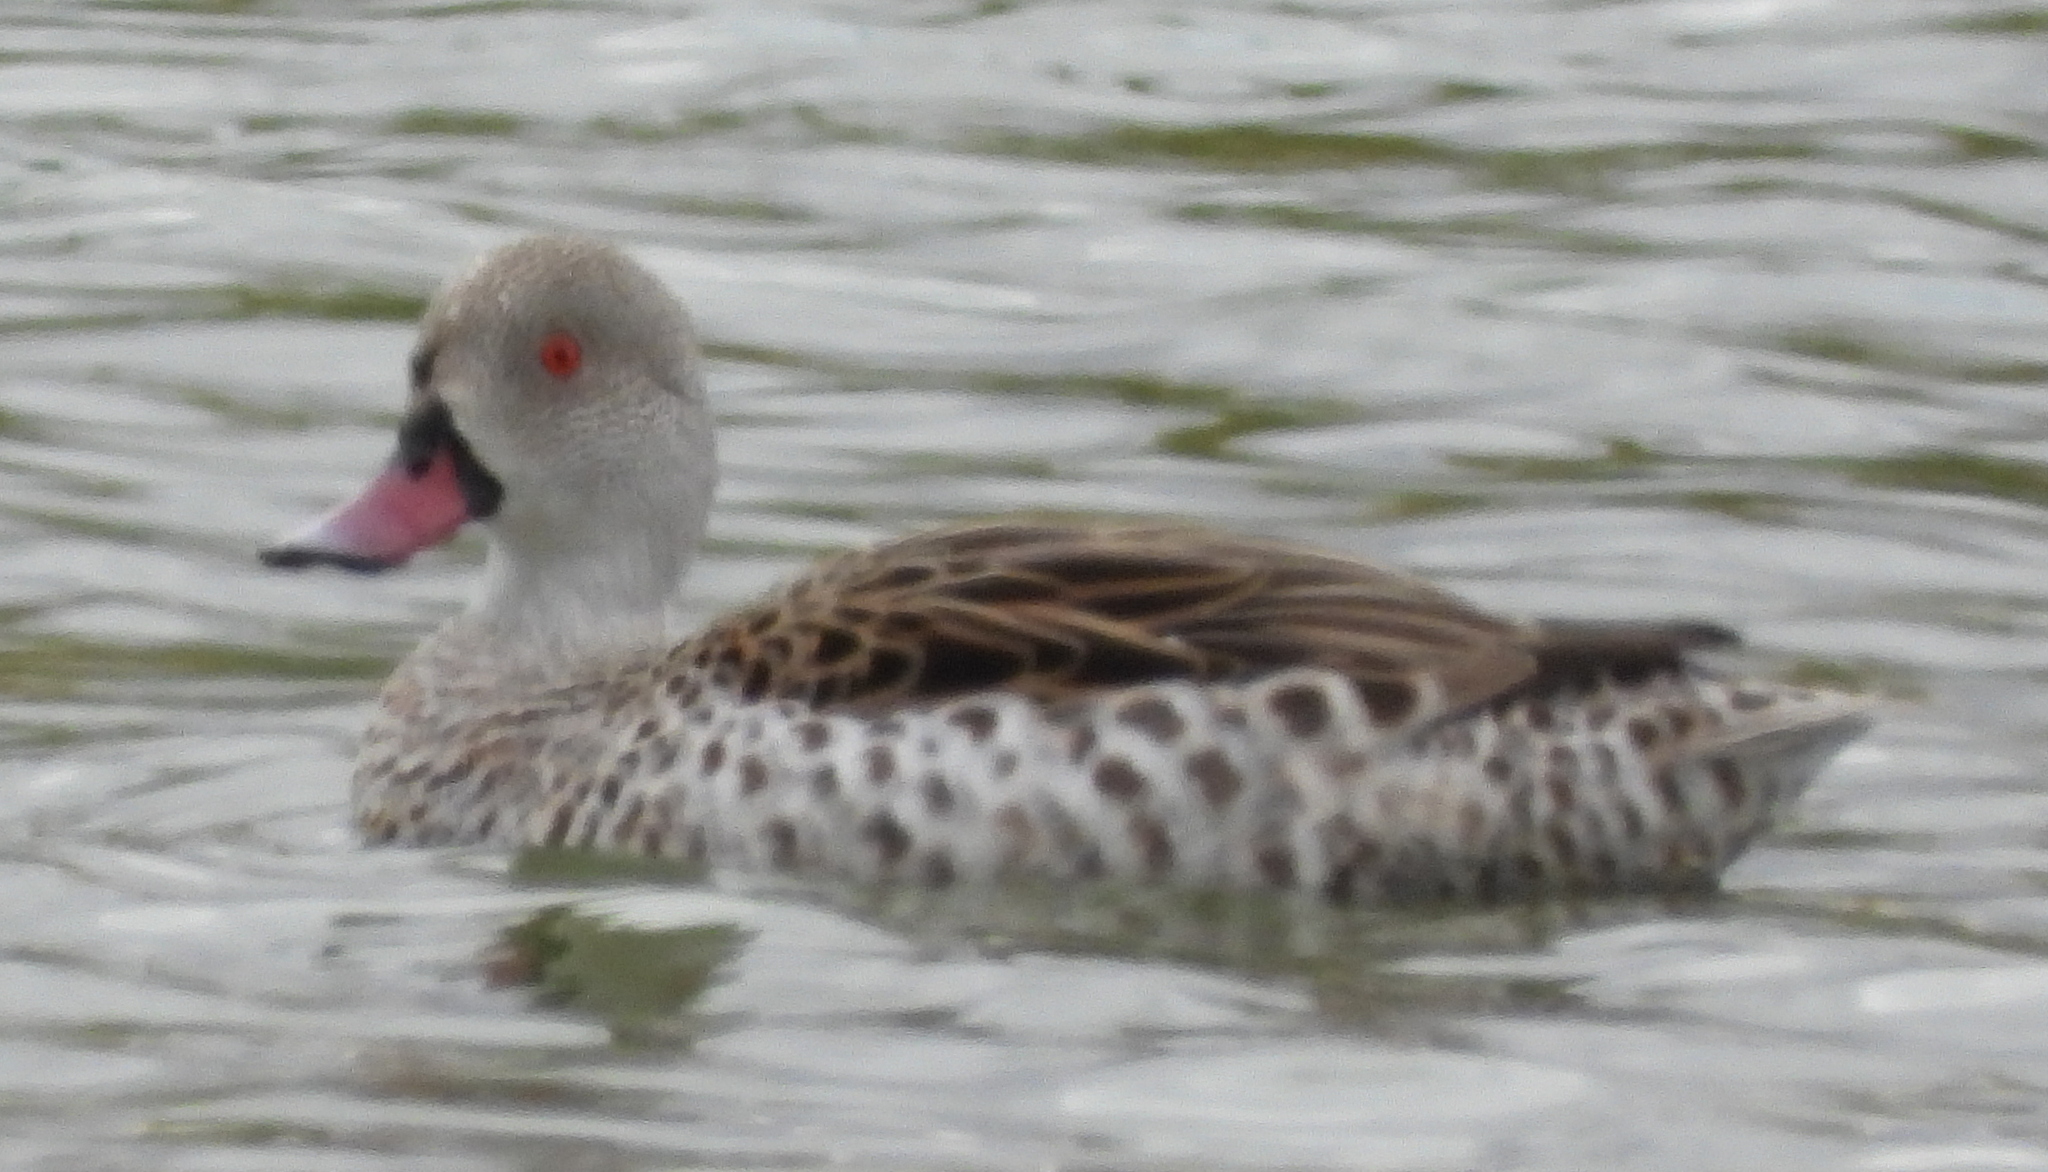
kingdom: Animalia
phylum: Chordata
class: Aves
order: Anseriformes
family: Anatidae
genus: Anas
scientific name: Anas capensis
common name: Cape teal
